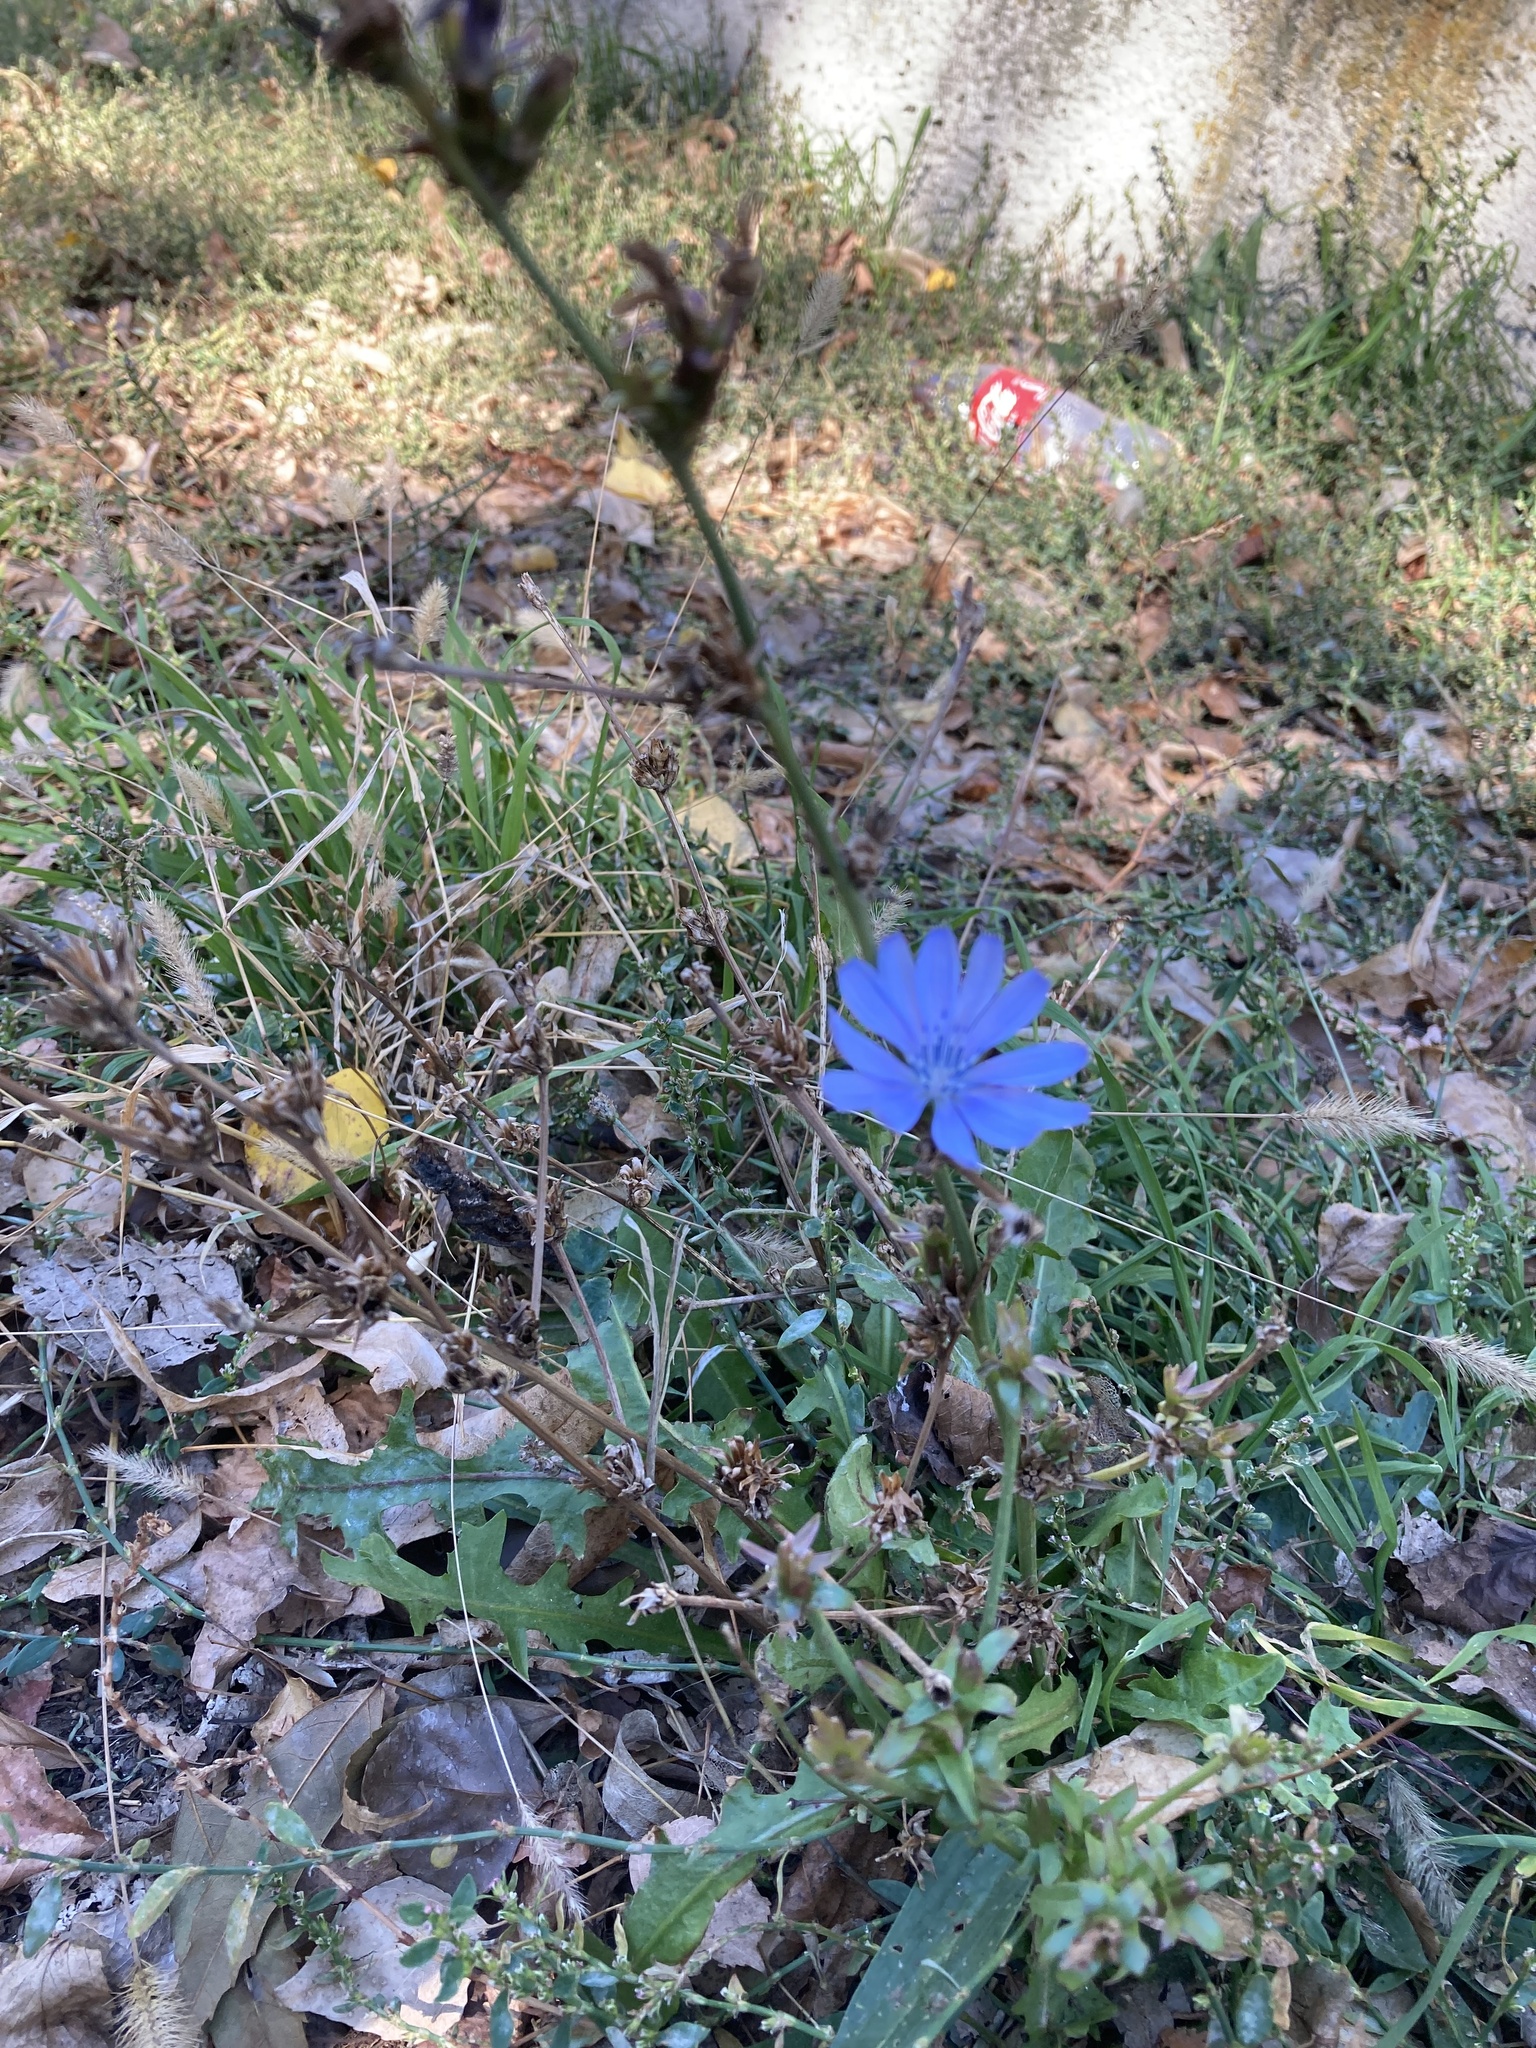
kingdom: Plantae
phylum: Tracheophyta
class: Magnoliopsida
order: Asterales
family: Asteraceae
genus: Cichorium
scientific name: Cichorium intybus
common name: Chicory
